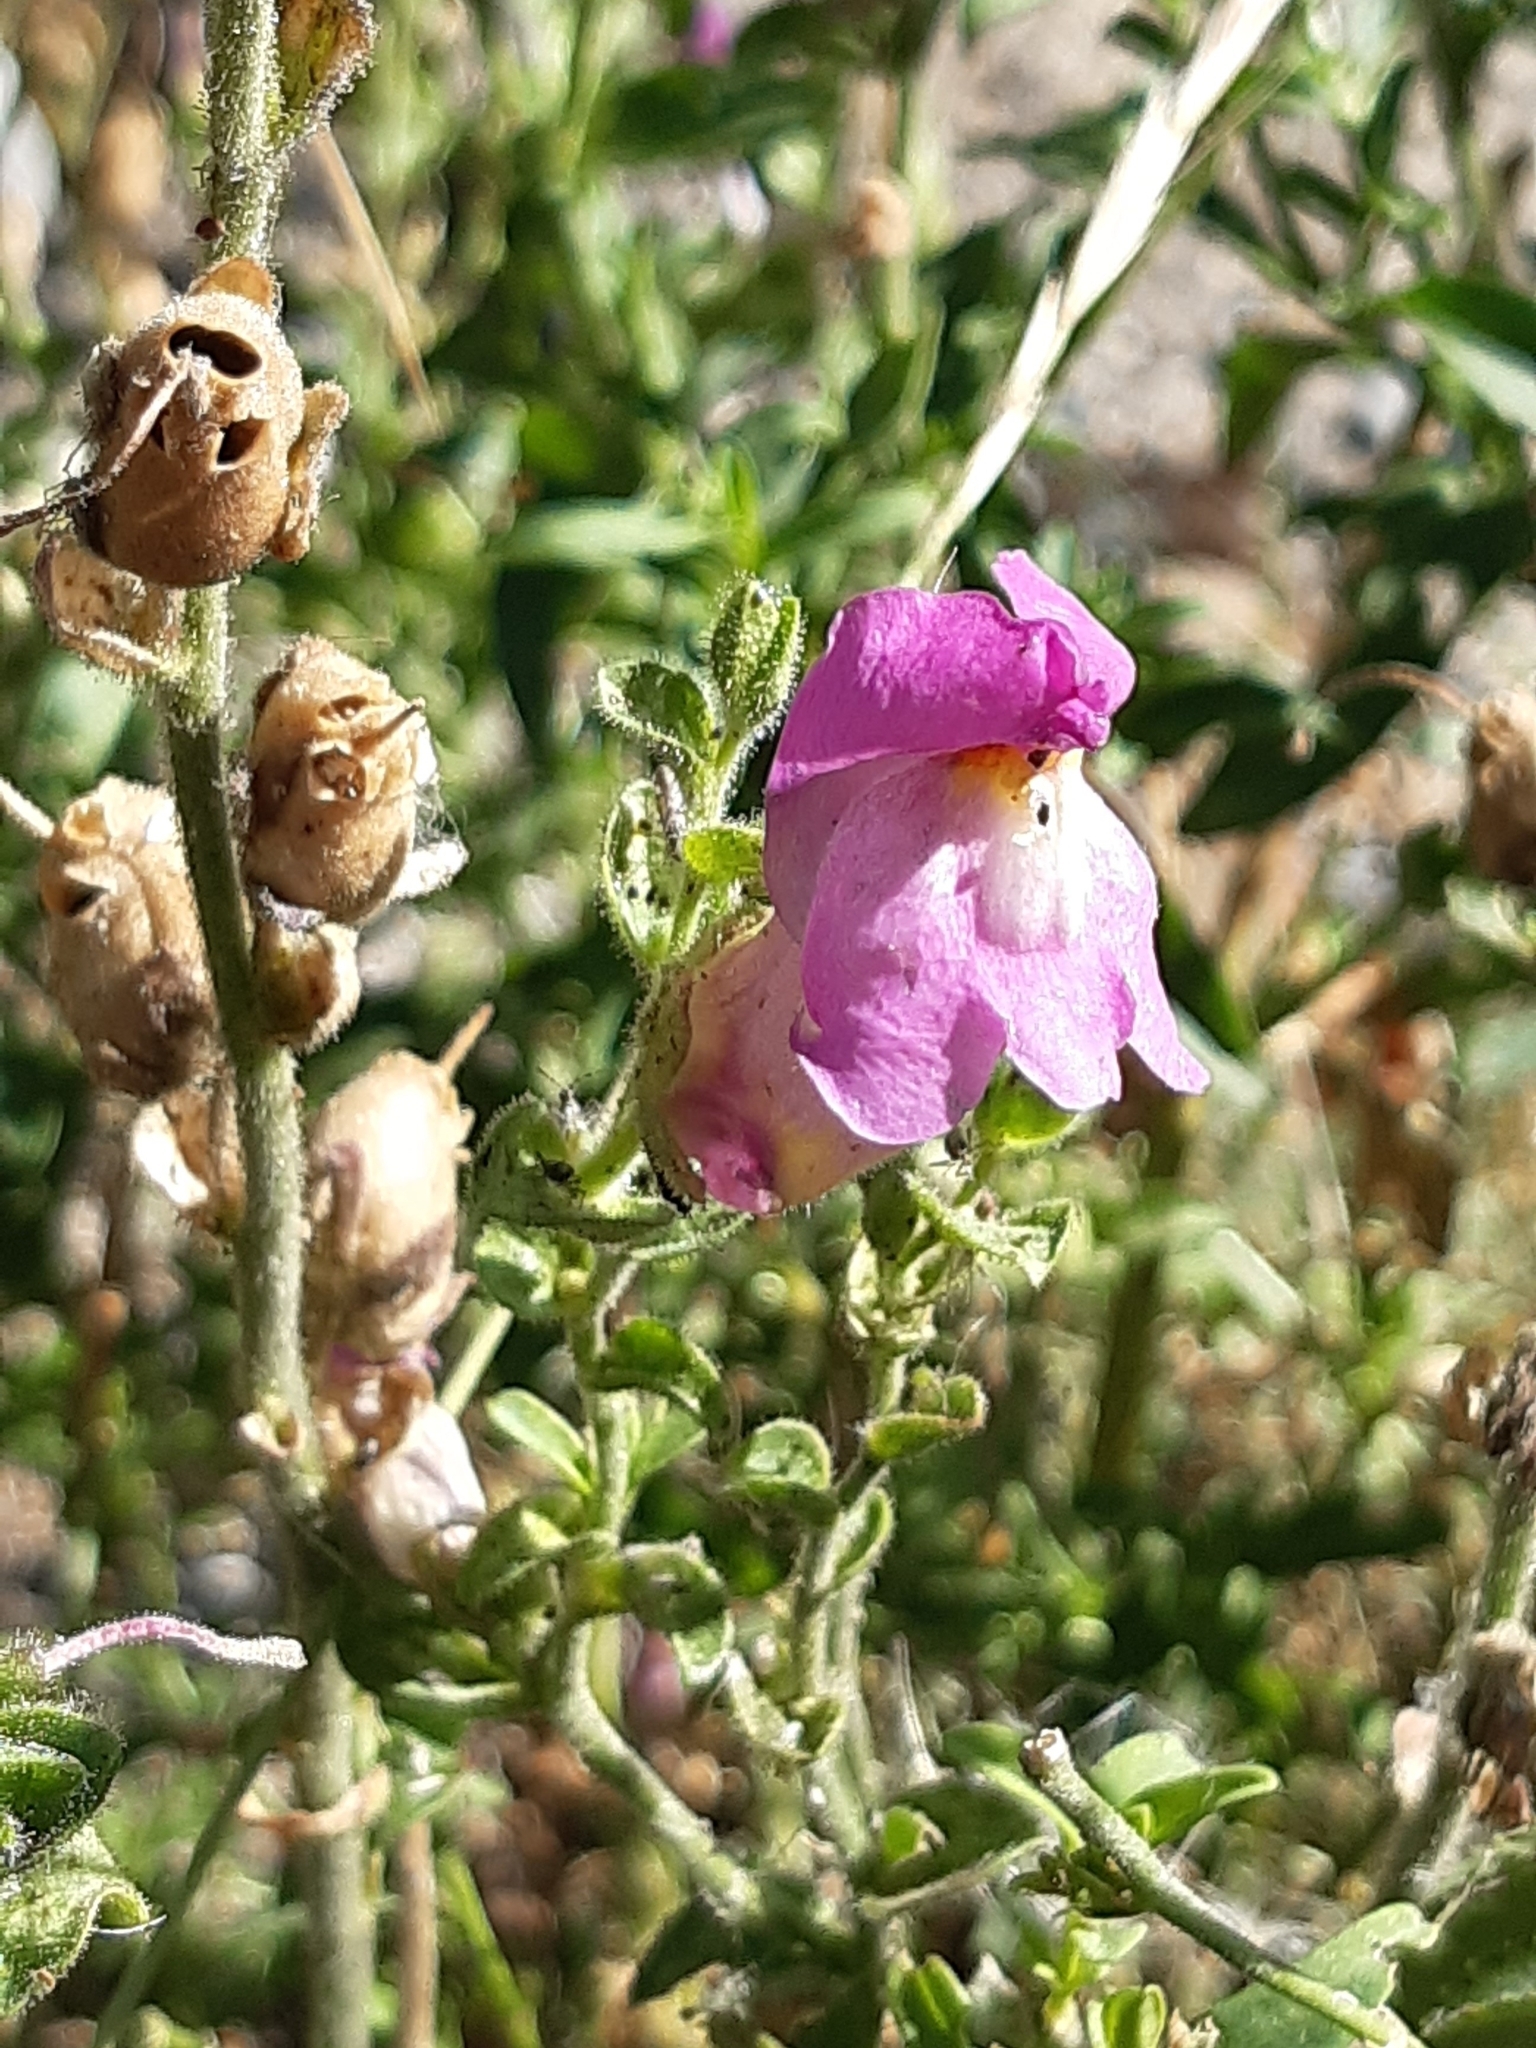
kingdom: Plantae
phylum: Tracheophyta
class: Magnoliopsida
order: Lamiales
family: Plantaginaceae
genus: Antirrhinum
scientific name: Antirrhinum majus
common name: Snapdragon
